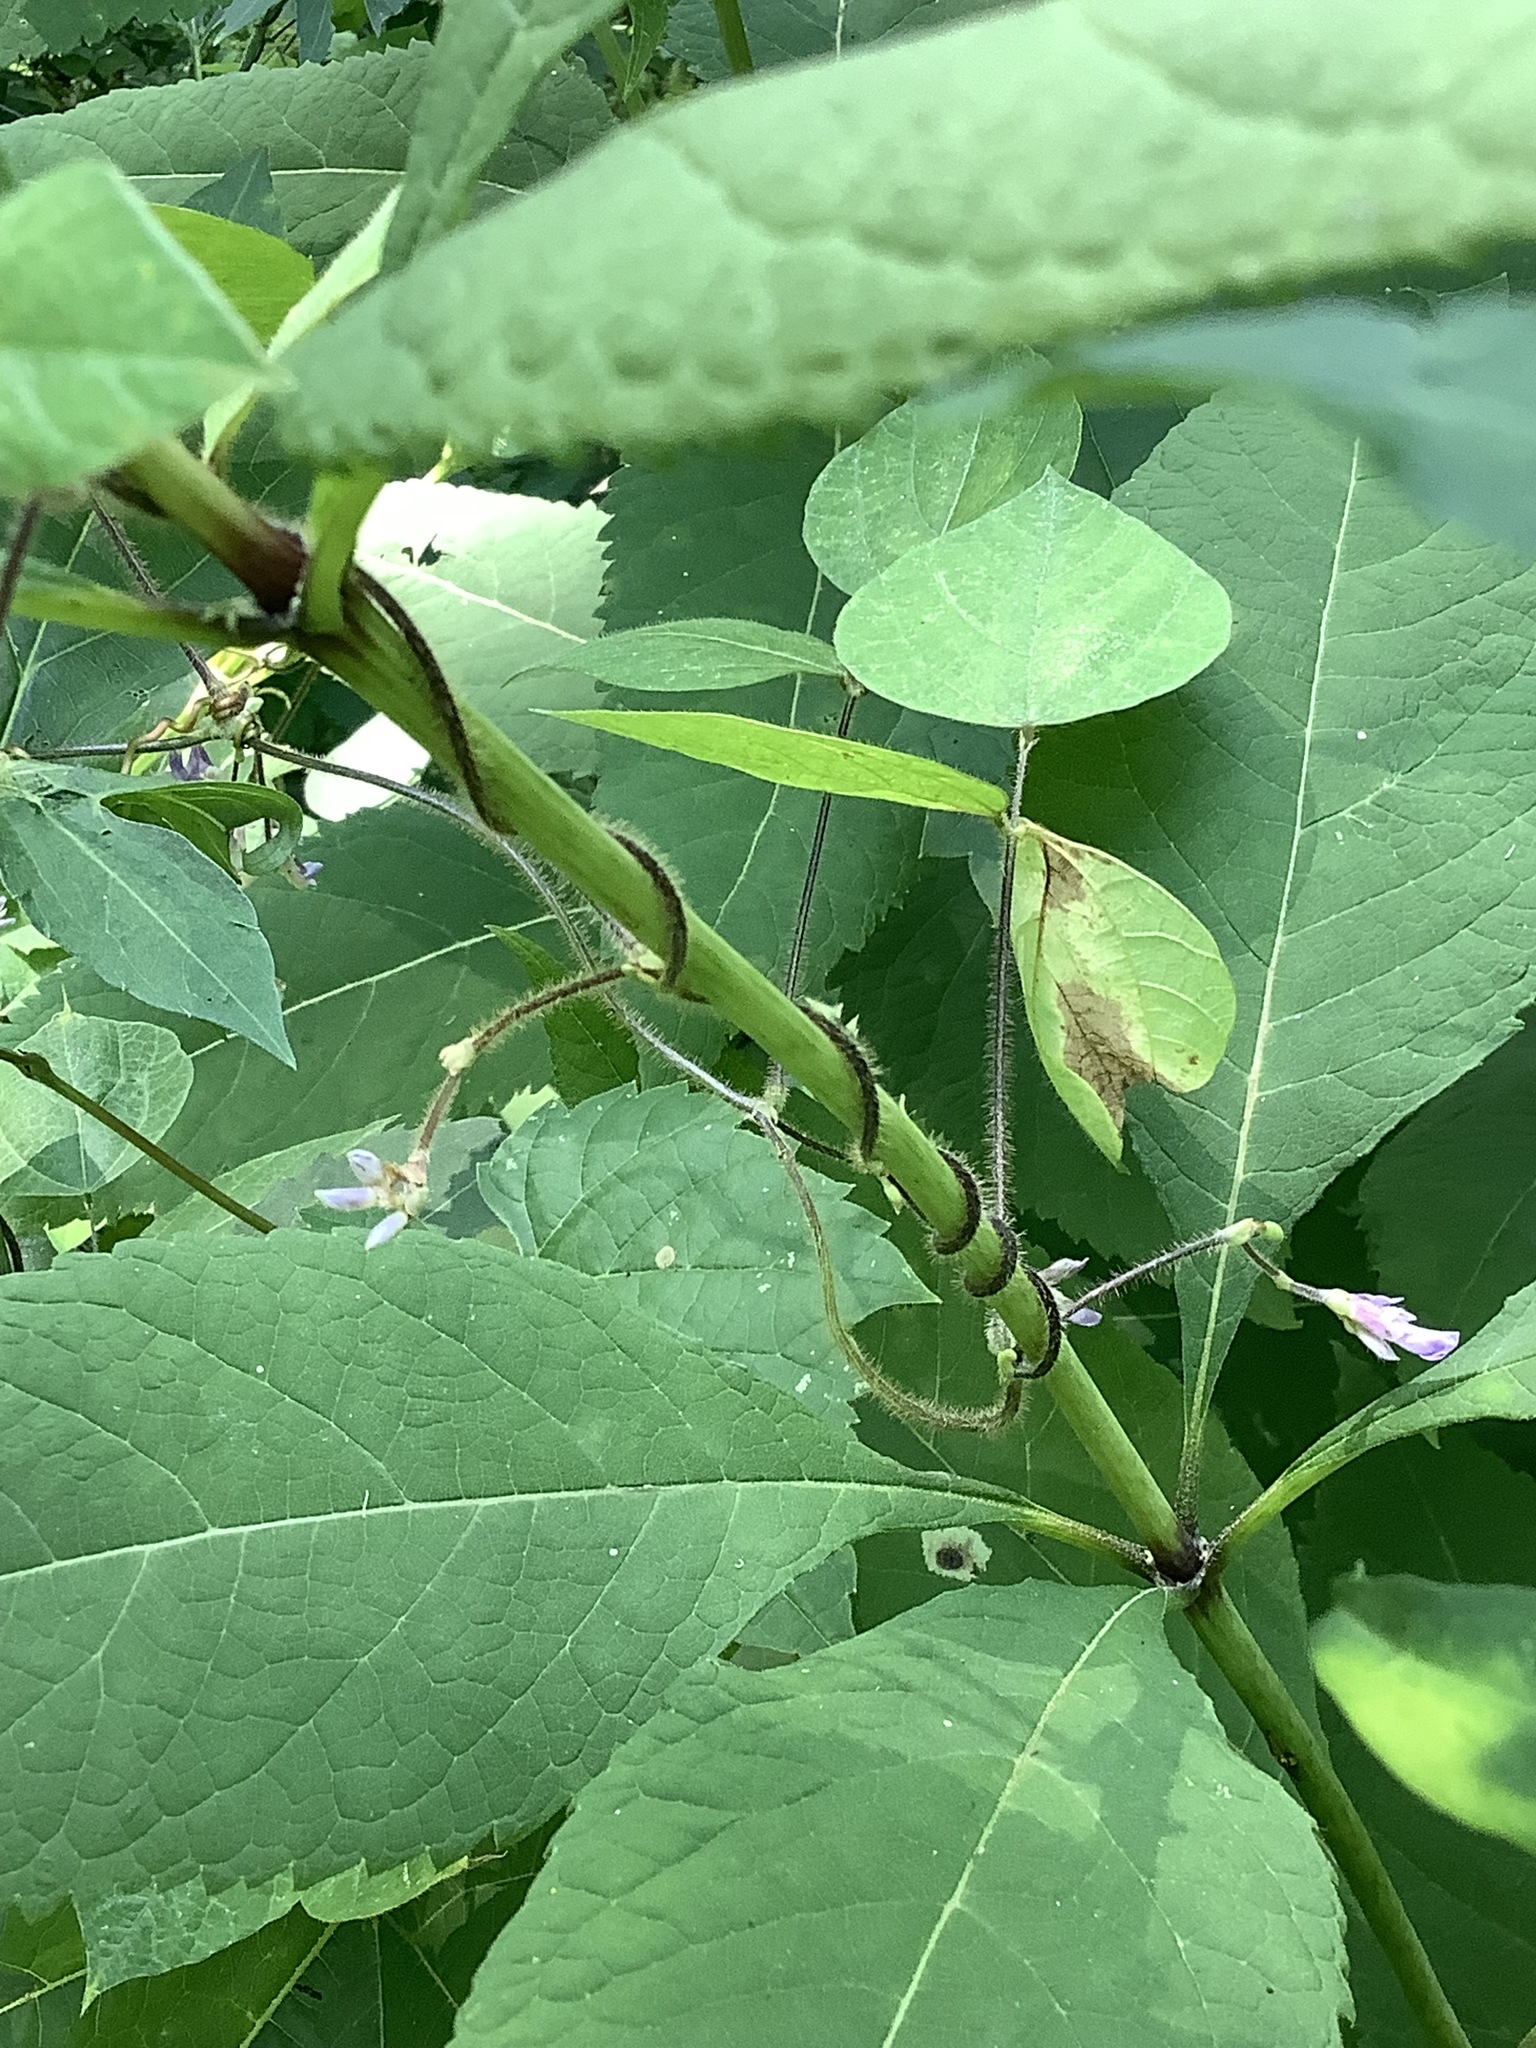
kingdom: Plantae
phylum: Tracheophyta
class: Magnoliopsida
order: Fabales
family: Fabaceae
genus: Amphicarpaea
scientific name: Amphicarpaea bracteata
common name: American hog peanut
